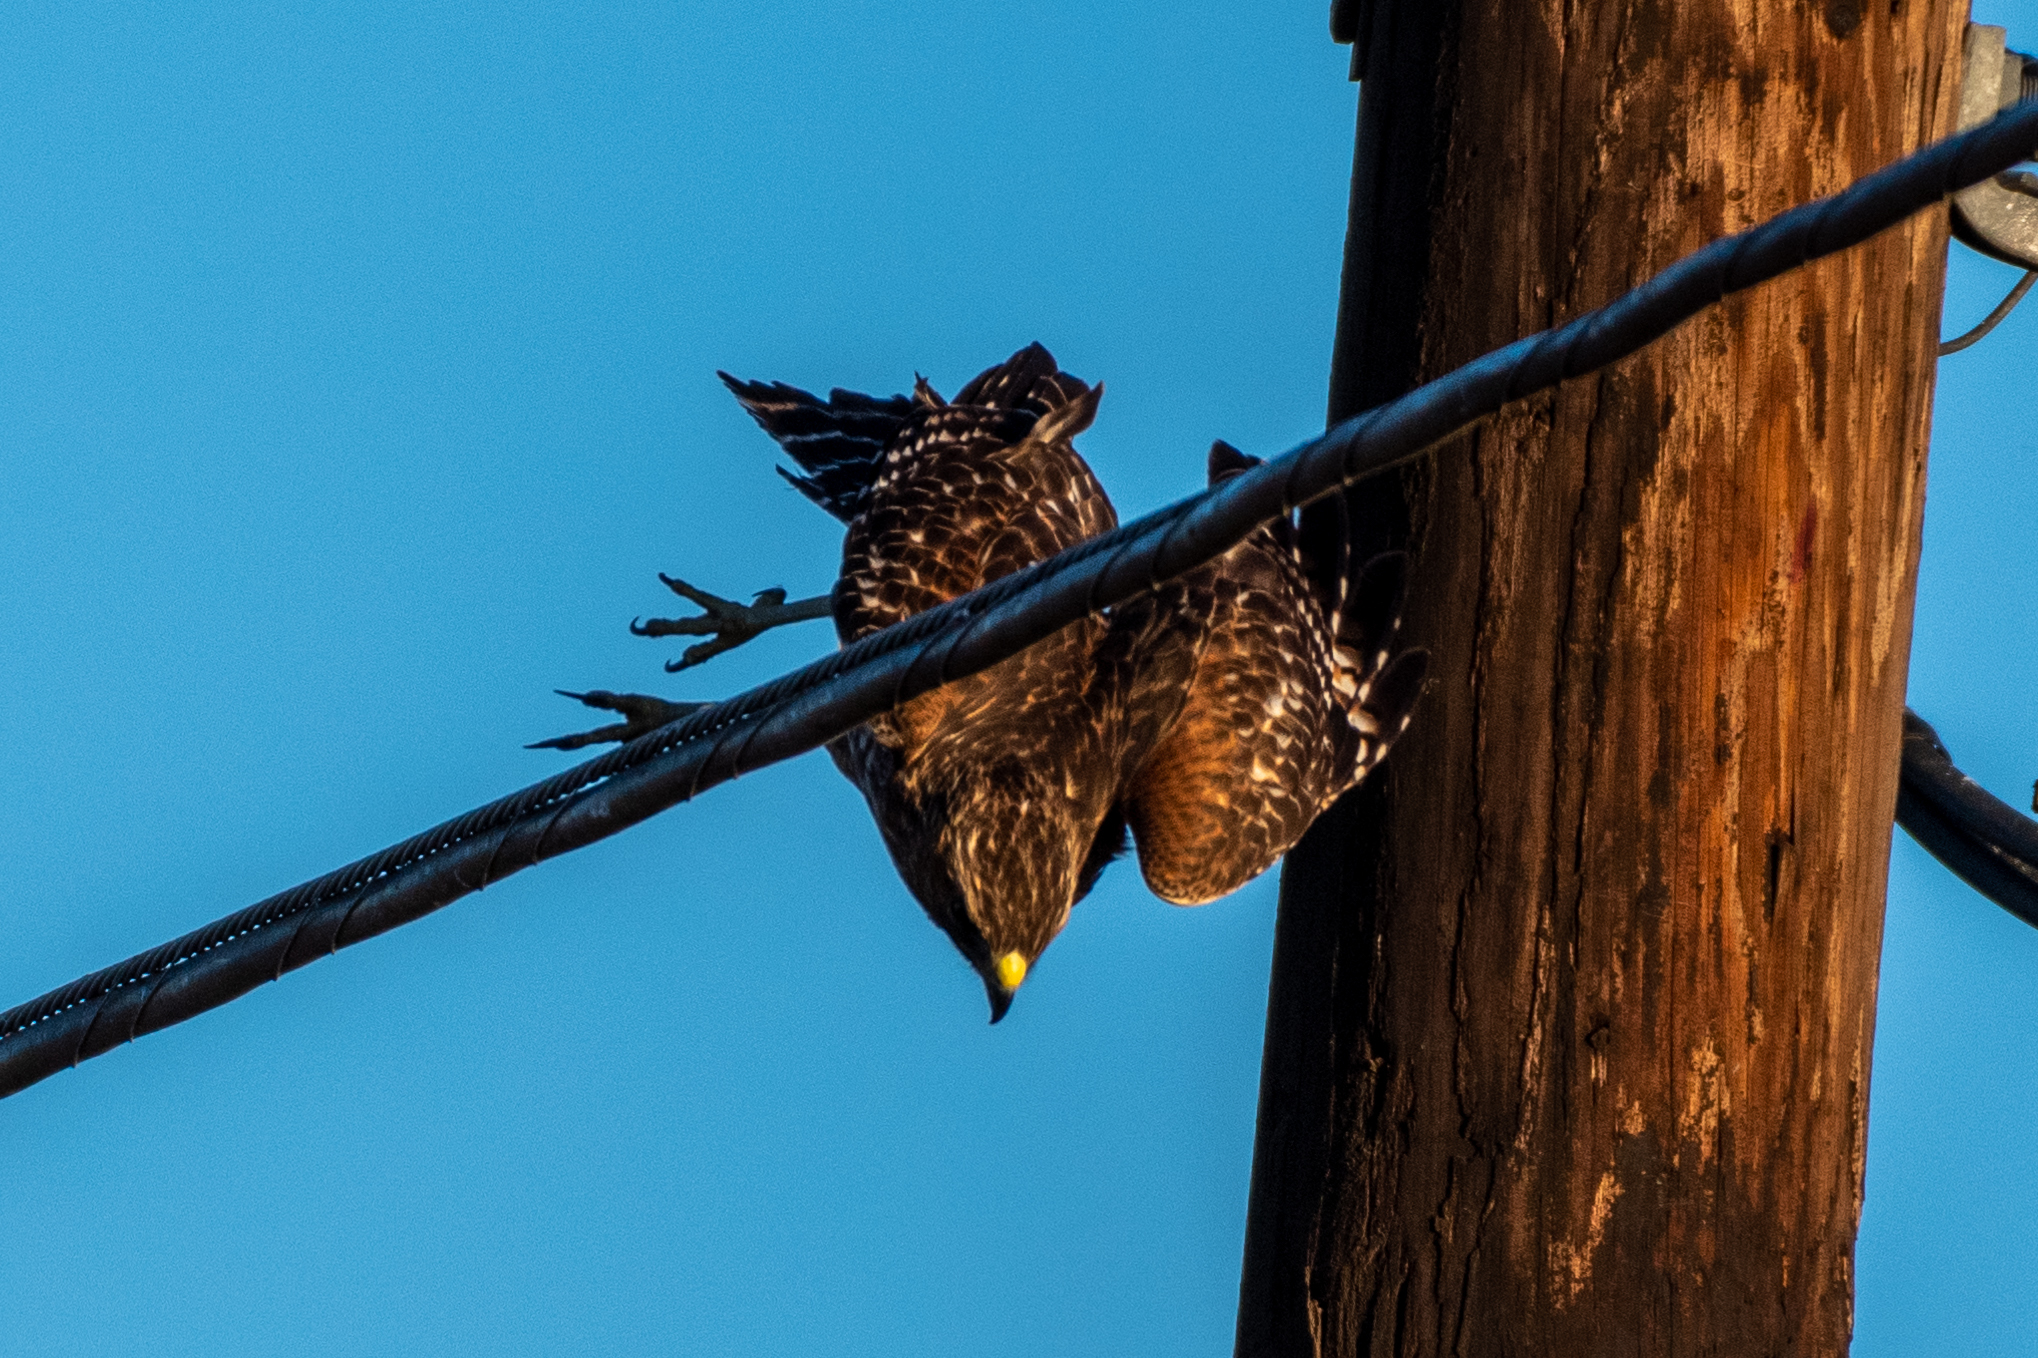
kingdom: Animalia
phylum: Chordata
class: Aves
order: Accipitriformes
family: Accipitridae
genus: Buteo
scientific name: Buteo lineatus
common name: Red-shouldered hawk
